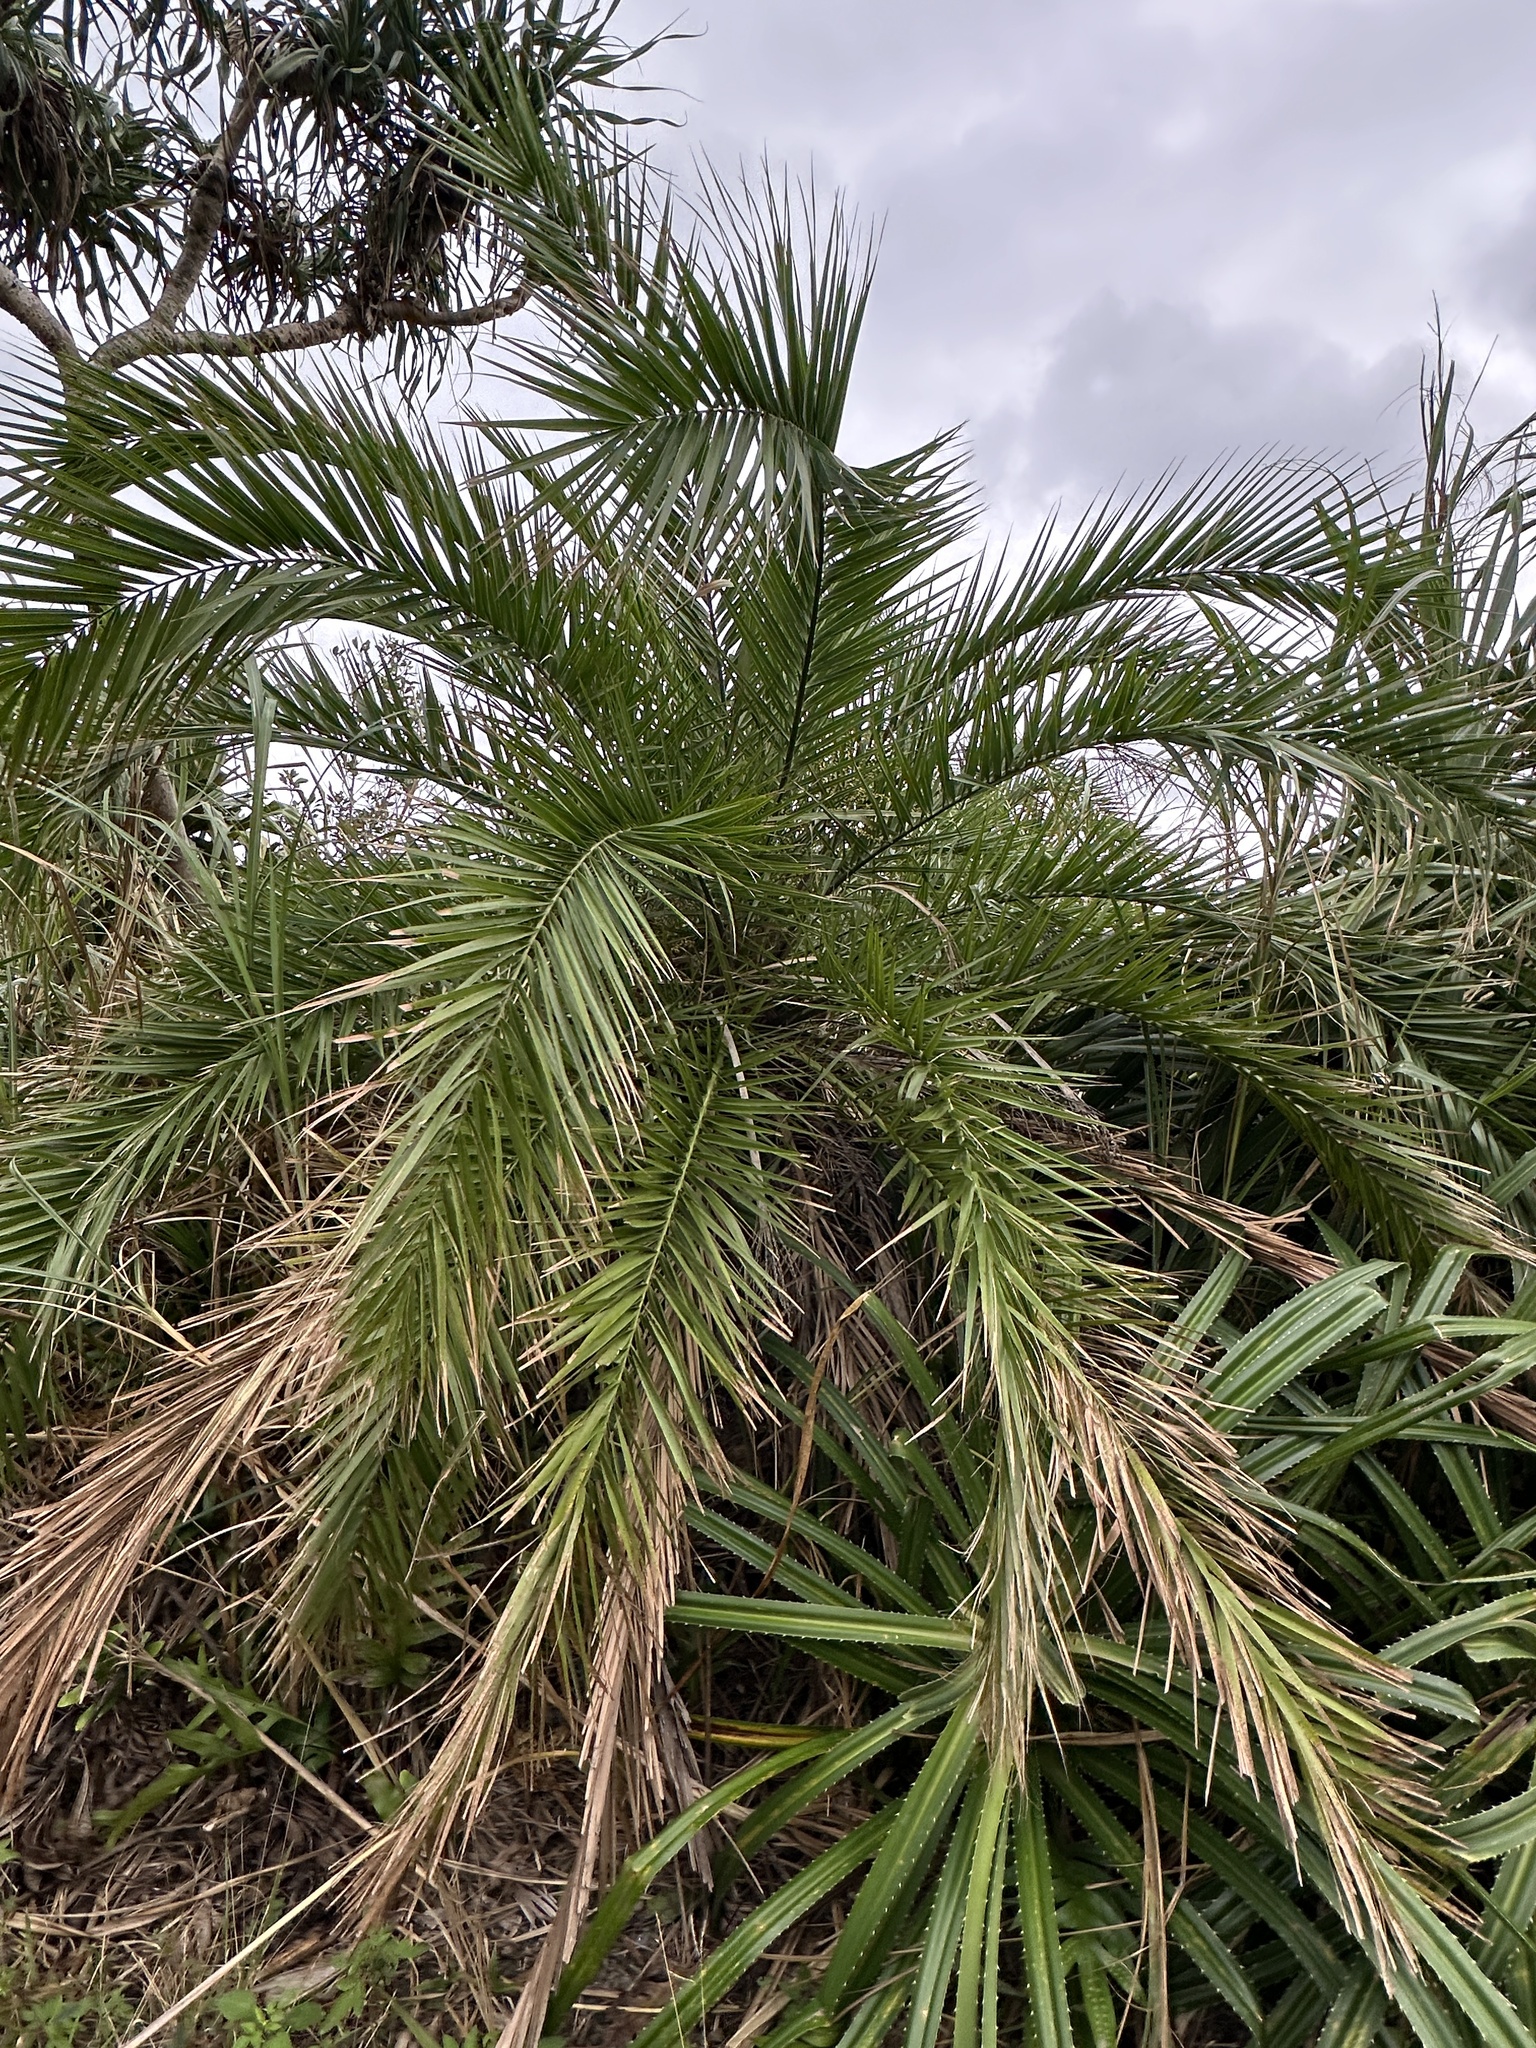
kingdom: Plantae
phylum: Tracheophyta
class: Liliopsida
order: Arecales
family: Arecaceae
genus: Phoenix
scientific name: Phoenix loureiroi
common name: Loureiro's palm
